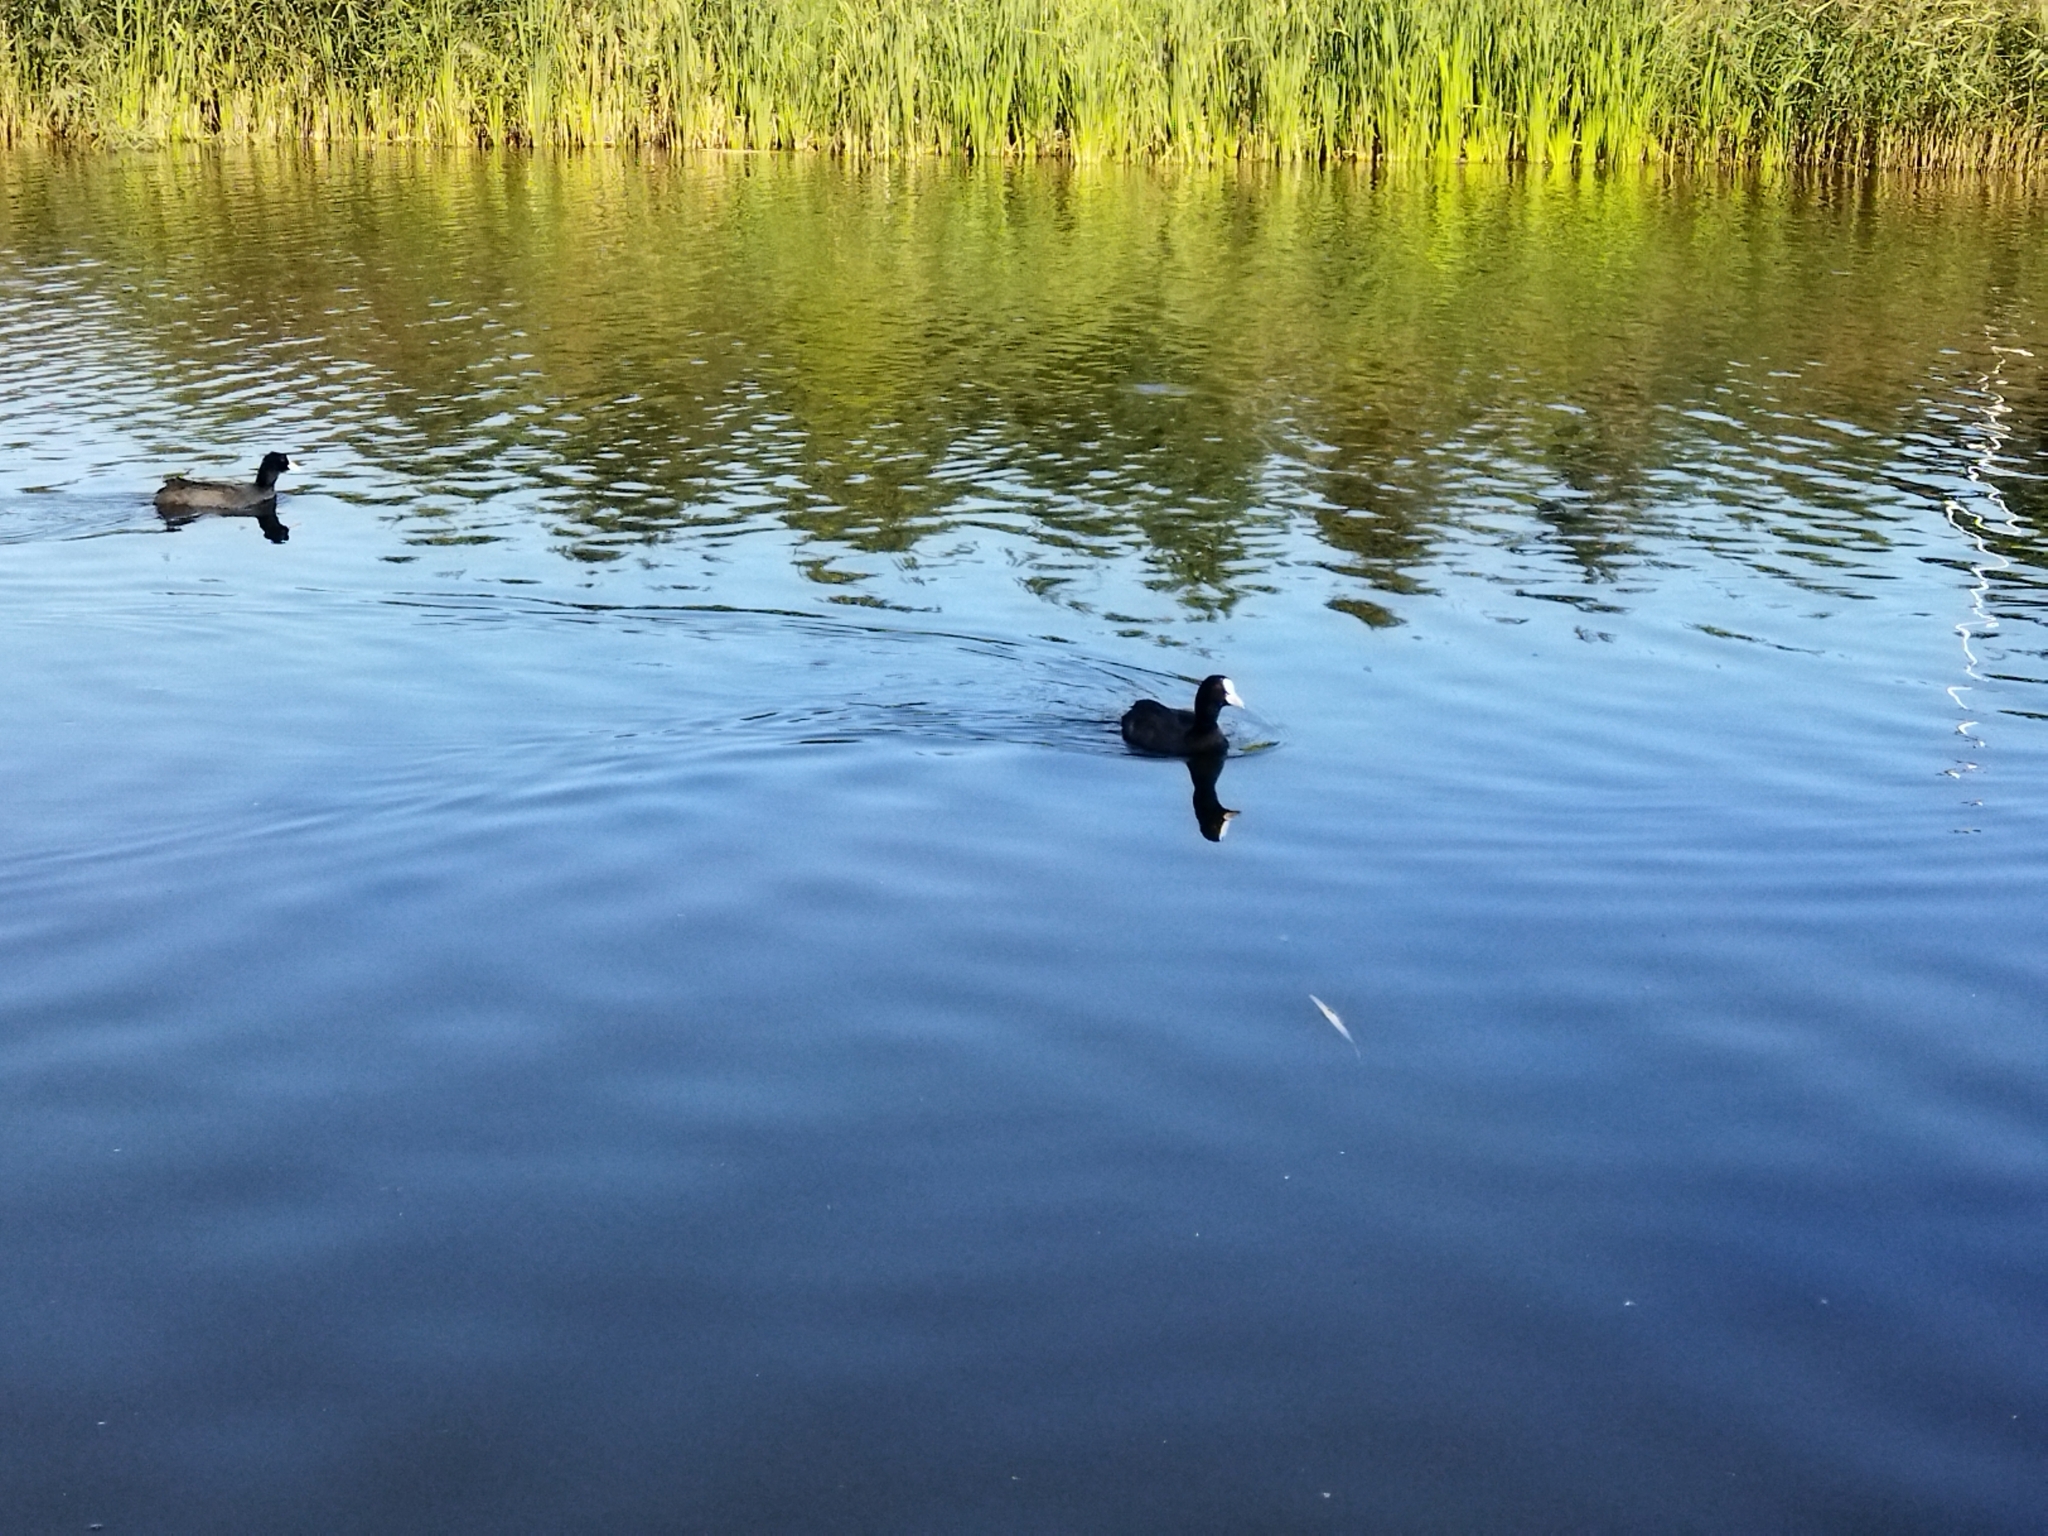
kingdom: Animalia
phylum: Chordata
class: Aves
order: Gruiformes
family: Rallidae
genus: Fulica
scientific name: Fulica atra
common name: Eurasian coot
